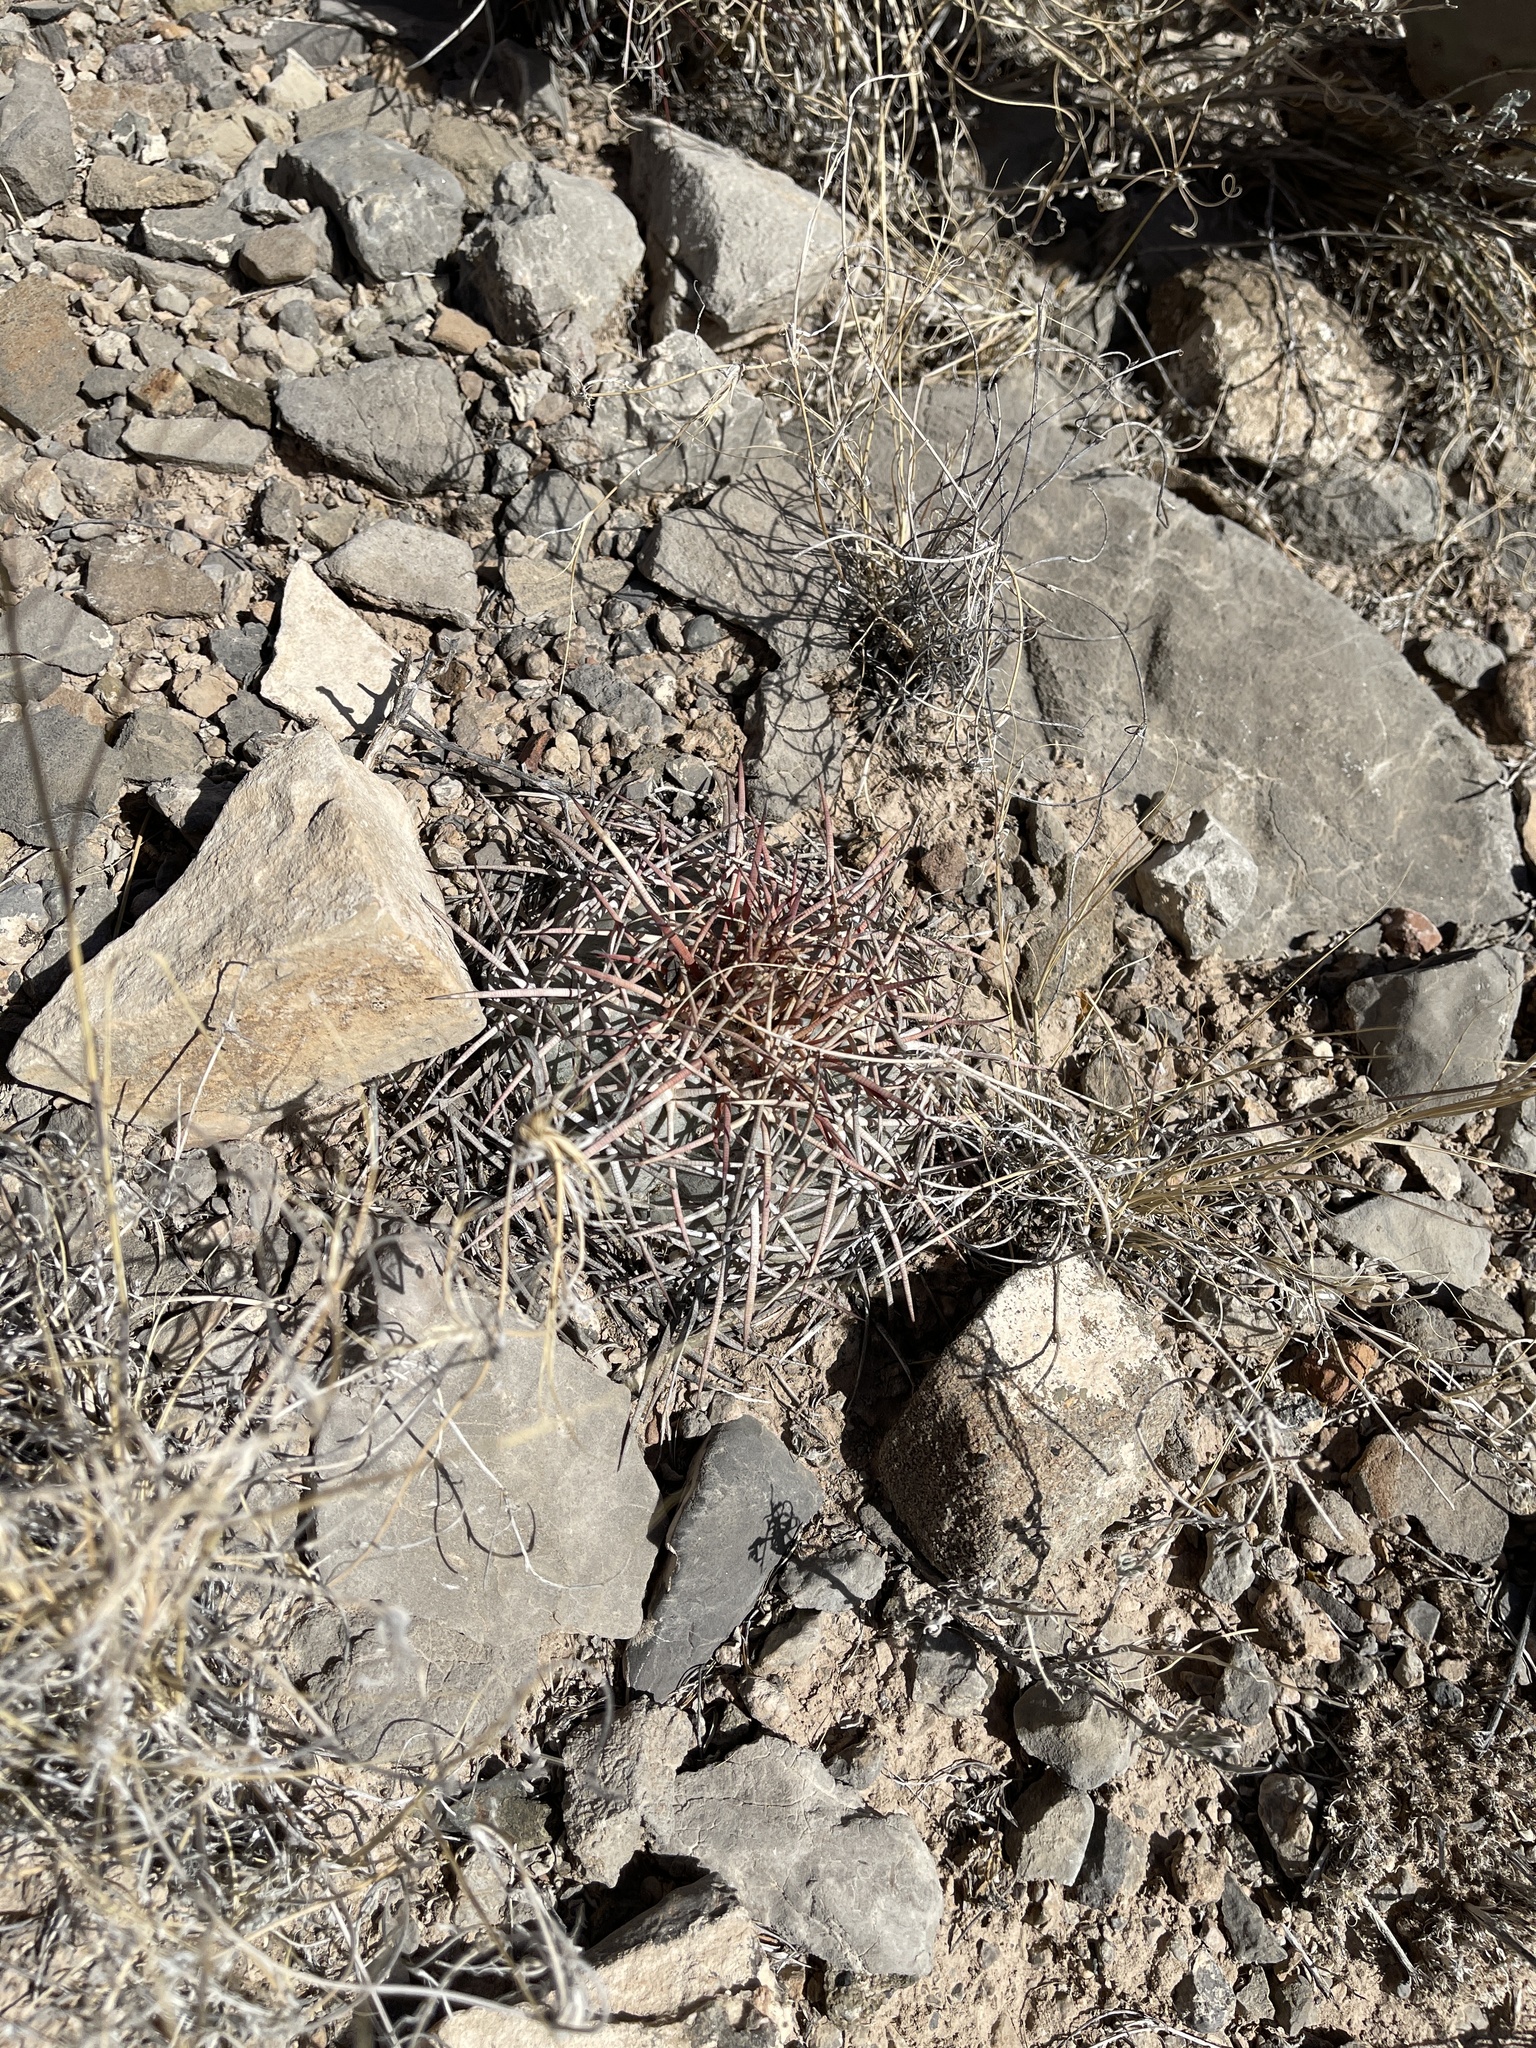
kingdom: Plantae
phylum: Tracheophyta
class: Magnoliopsida
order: Caryophyllales
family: Cactaceae
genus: Echinocactus
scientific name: Echinocactus horizonthalonius
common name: Devilshead
